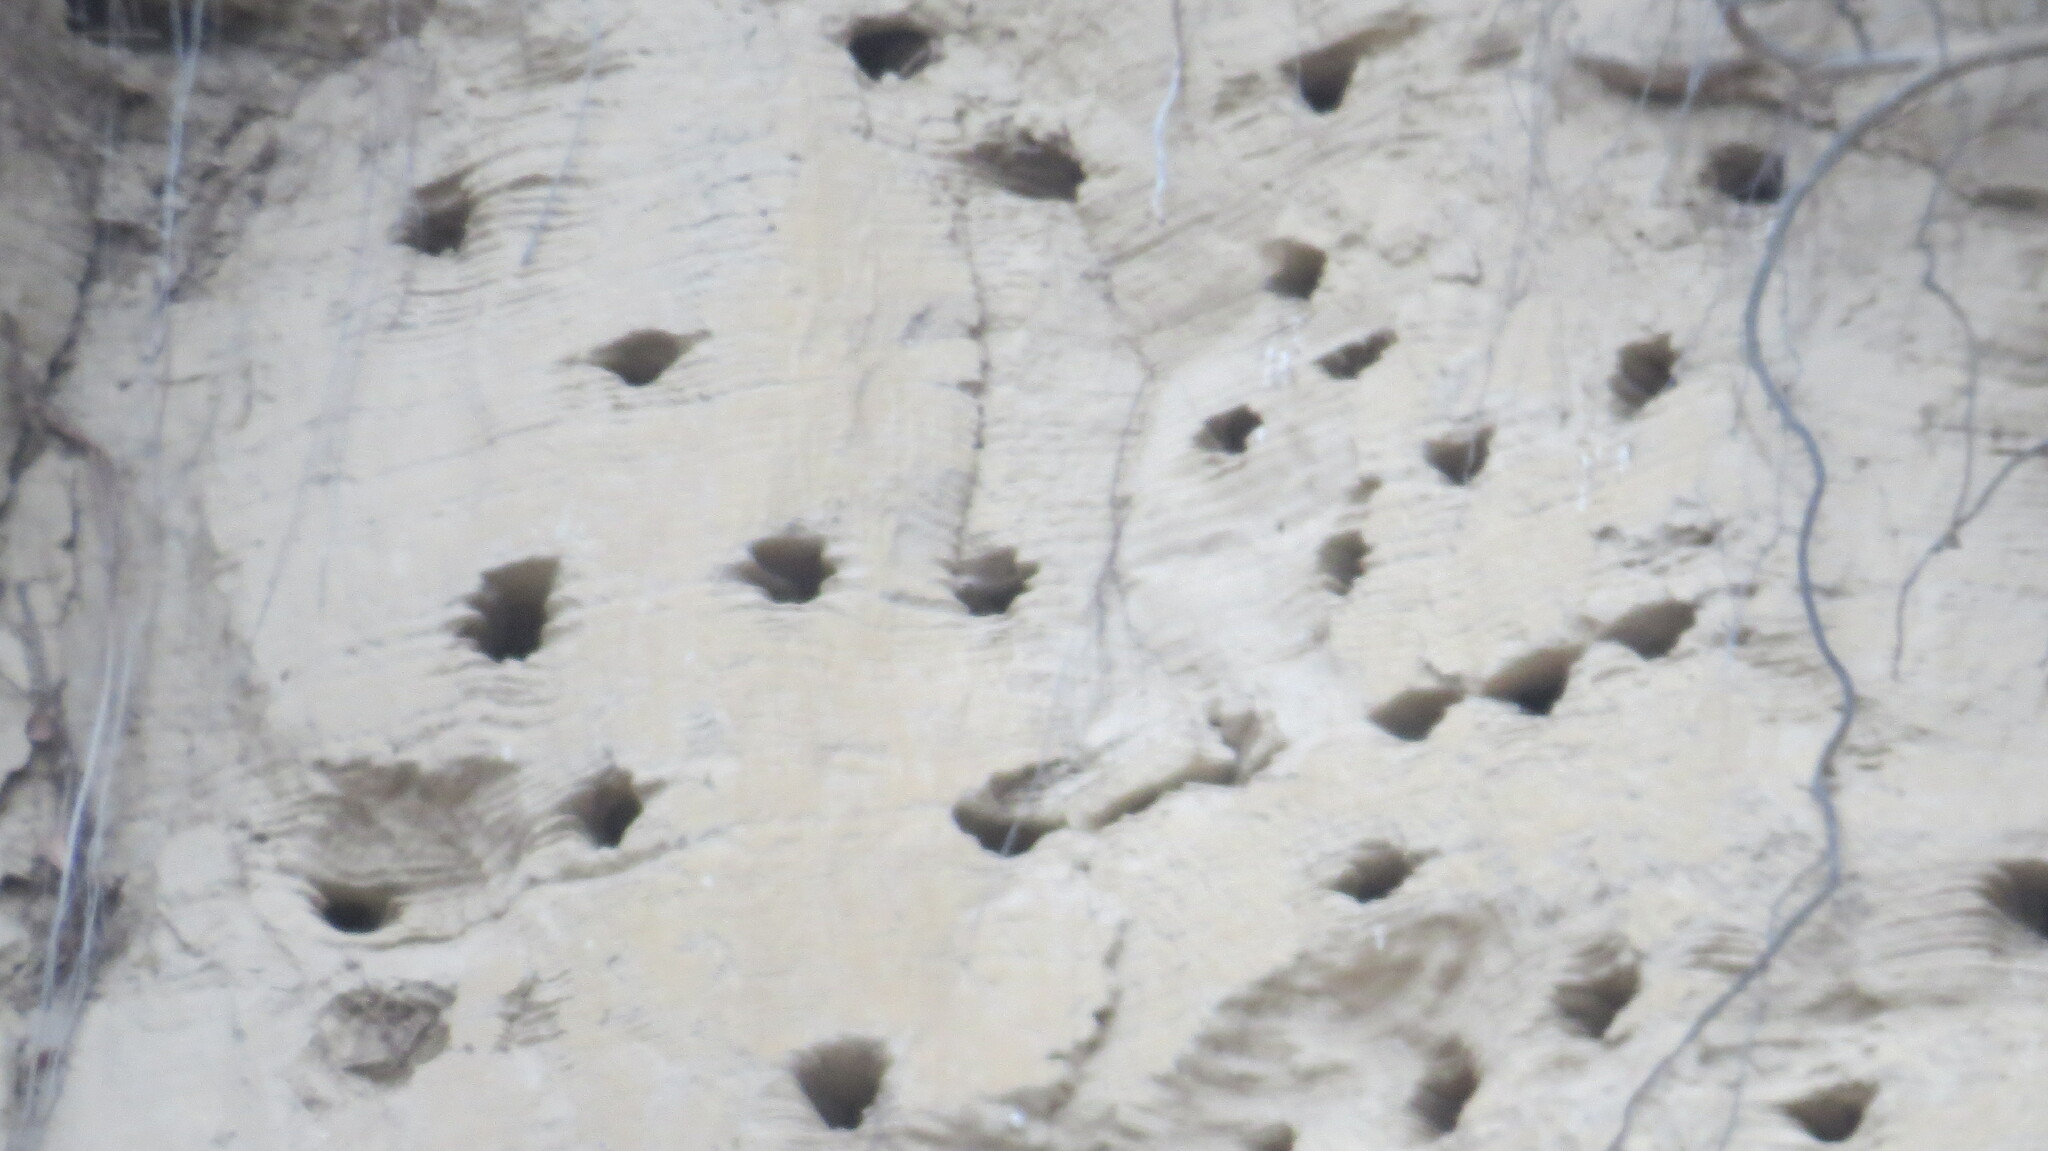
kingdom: Animalia
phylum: Chordata
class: Aves
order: Passeriformes
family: Hirundinidae
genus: Riparia
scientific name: Riparia riparia
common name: Sand martin
